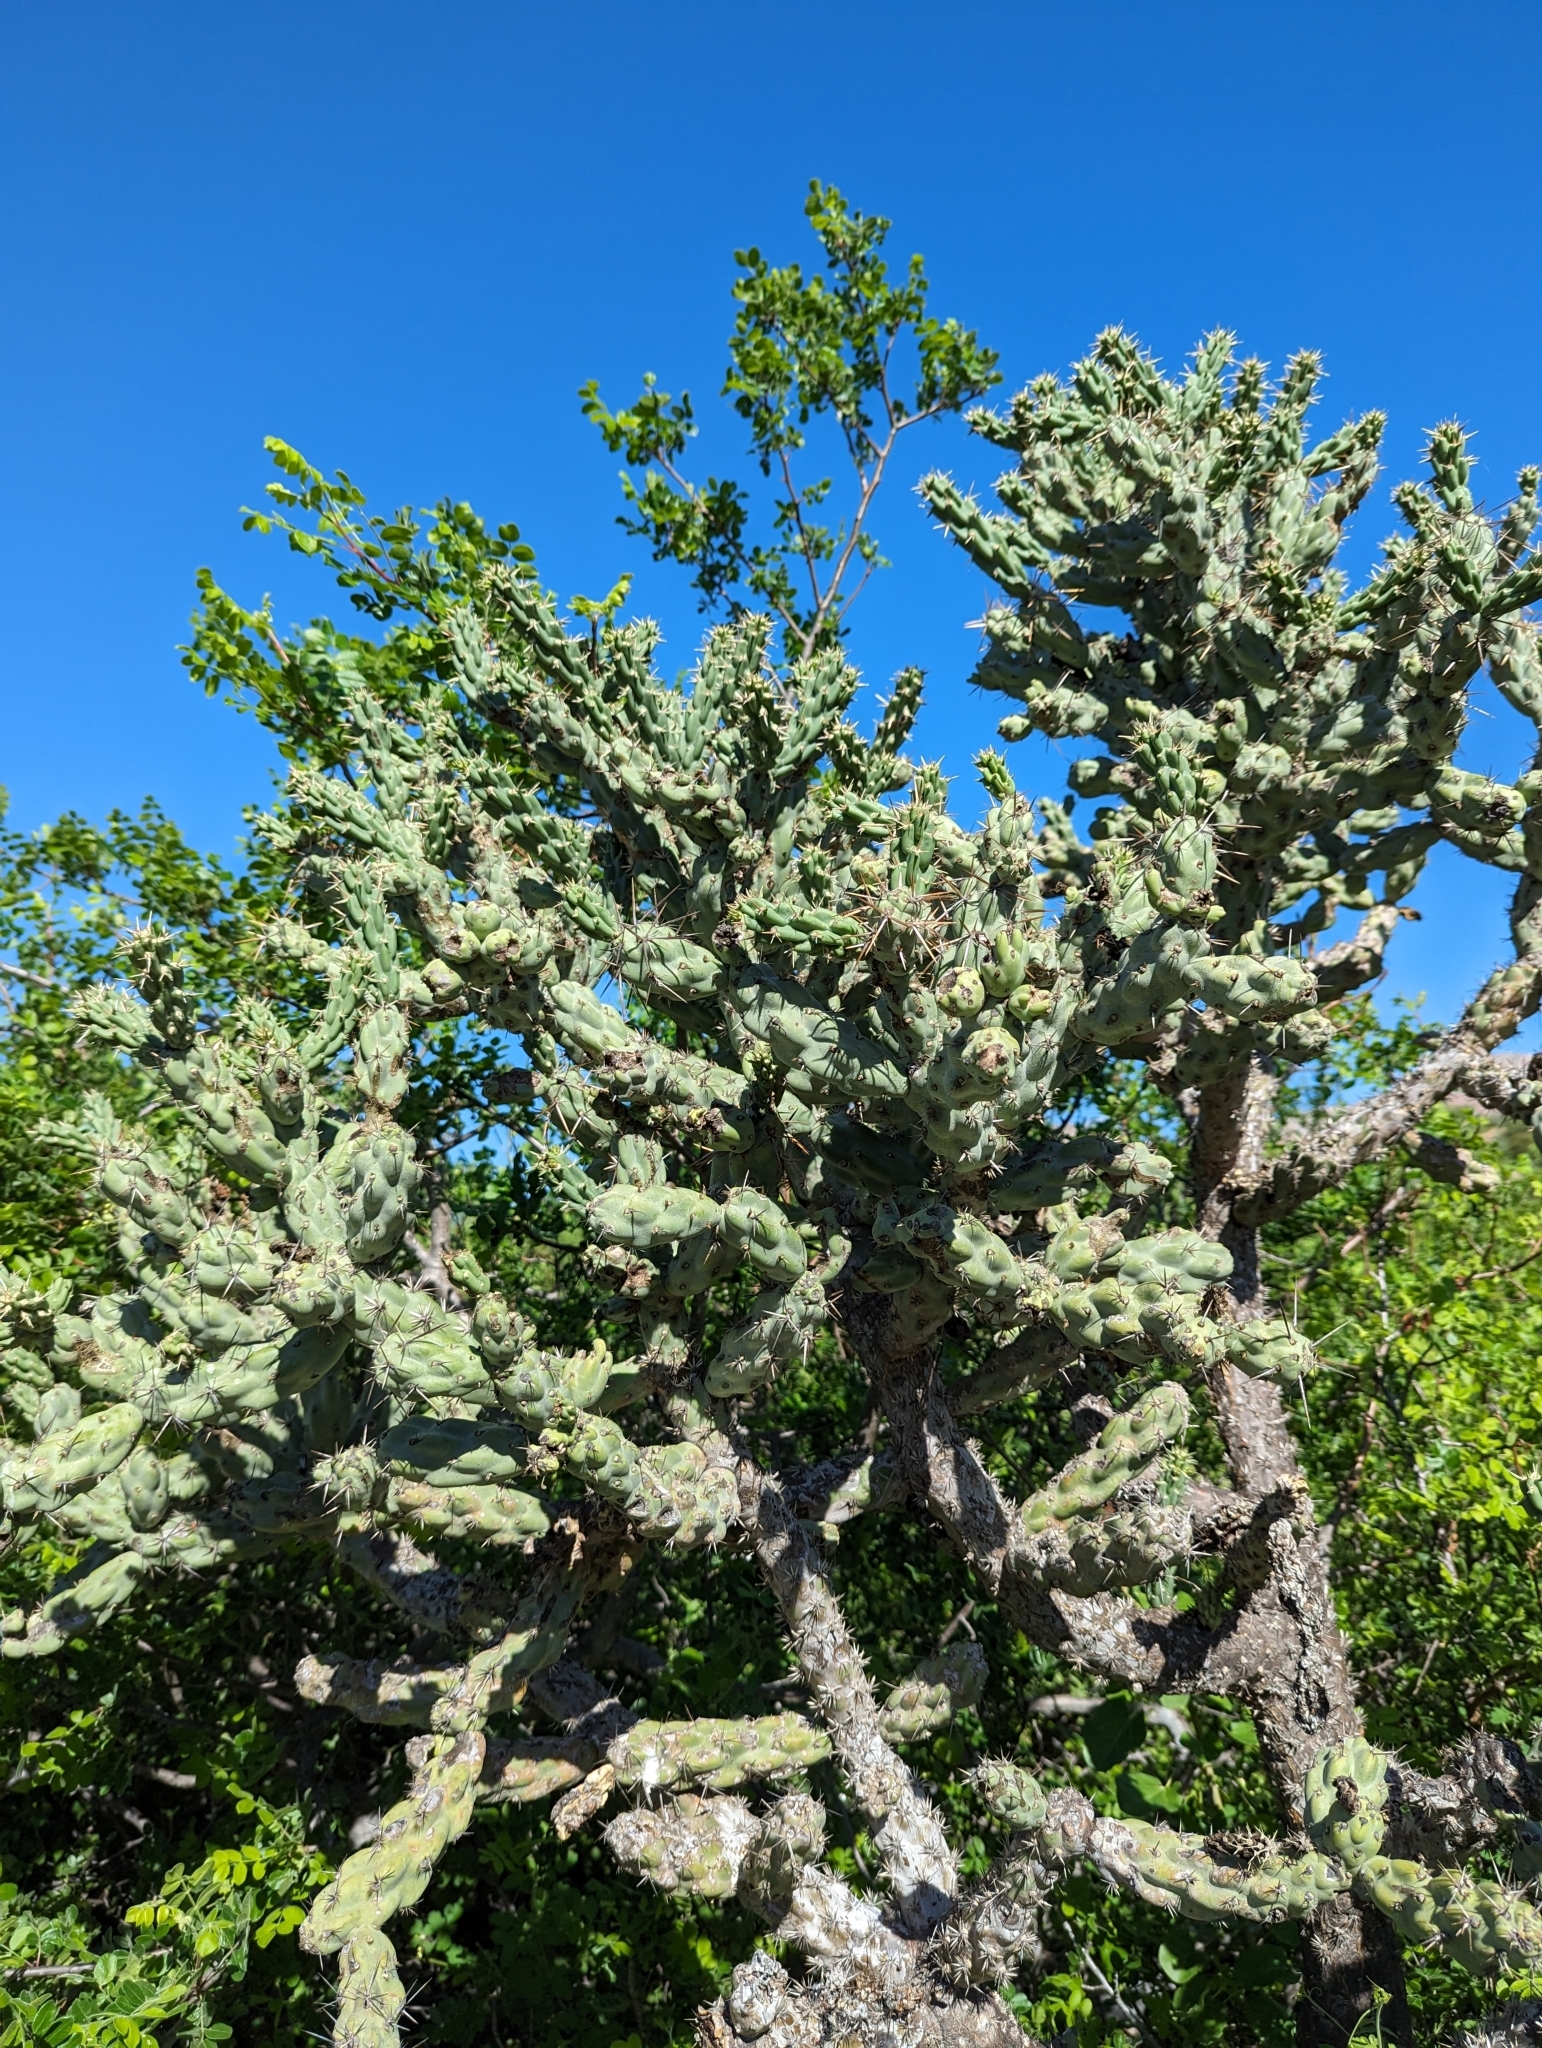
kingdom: Plantae
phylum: Tracheophyta
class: Magnoliopsida
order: Caryophyllales
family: Cactaceae
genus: Cylindropuntia
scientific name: Cylindropuntia cholla
